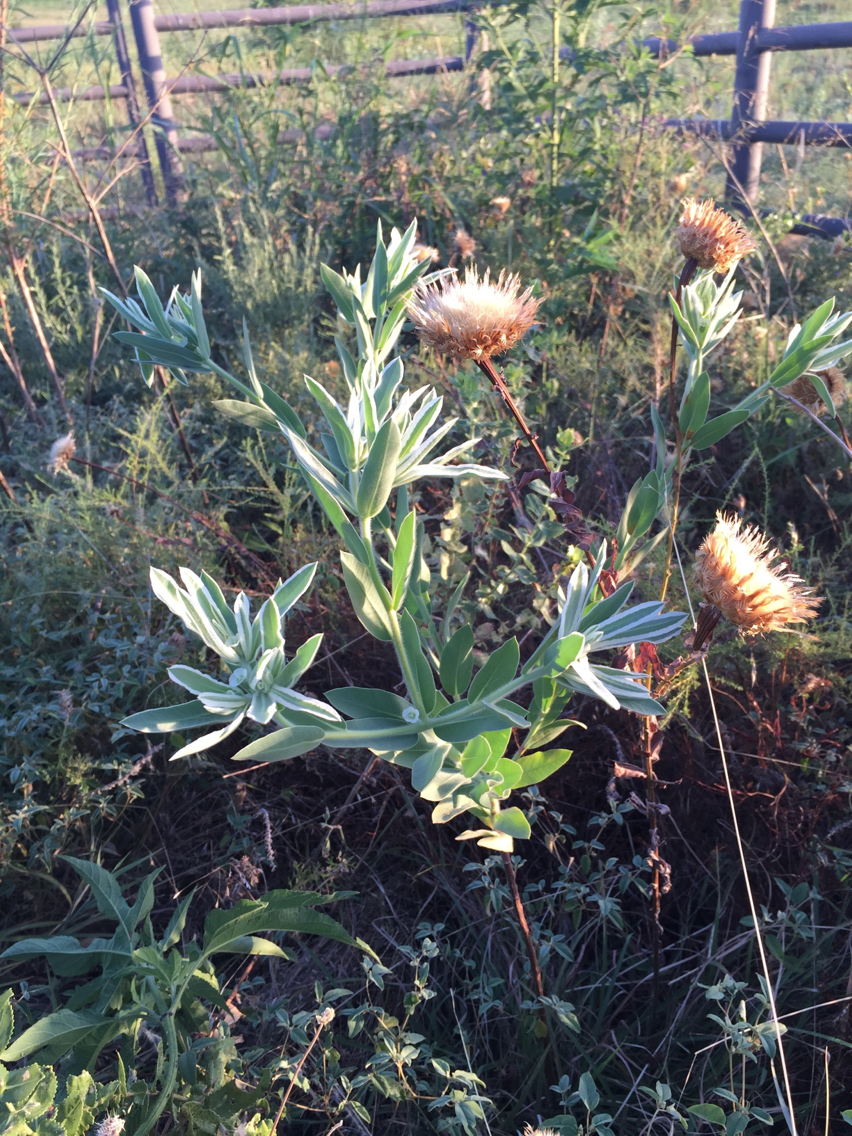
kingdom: Plantae
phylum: Tracheophyta
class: Magnoliopsida
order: Malpighiales
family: Euphorbiaceae
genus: Euphorbia
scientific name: Euphorbia bicolor
